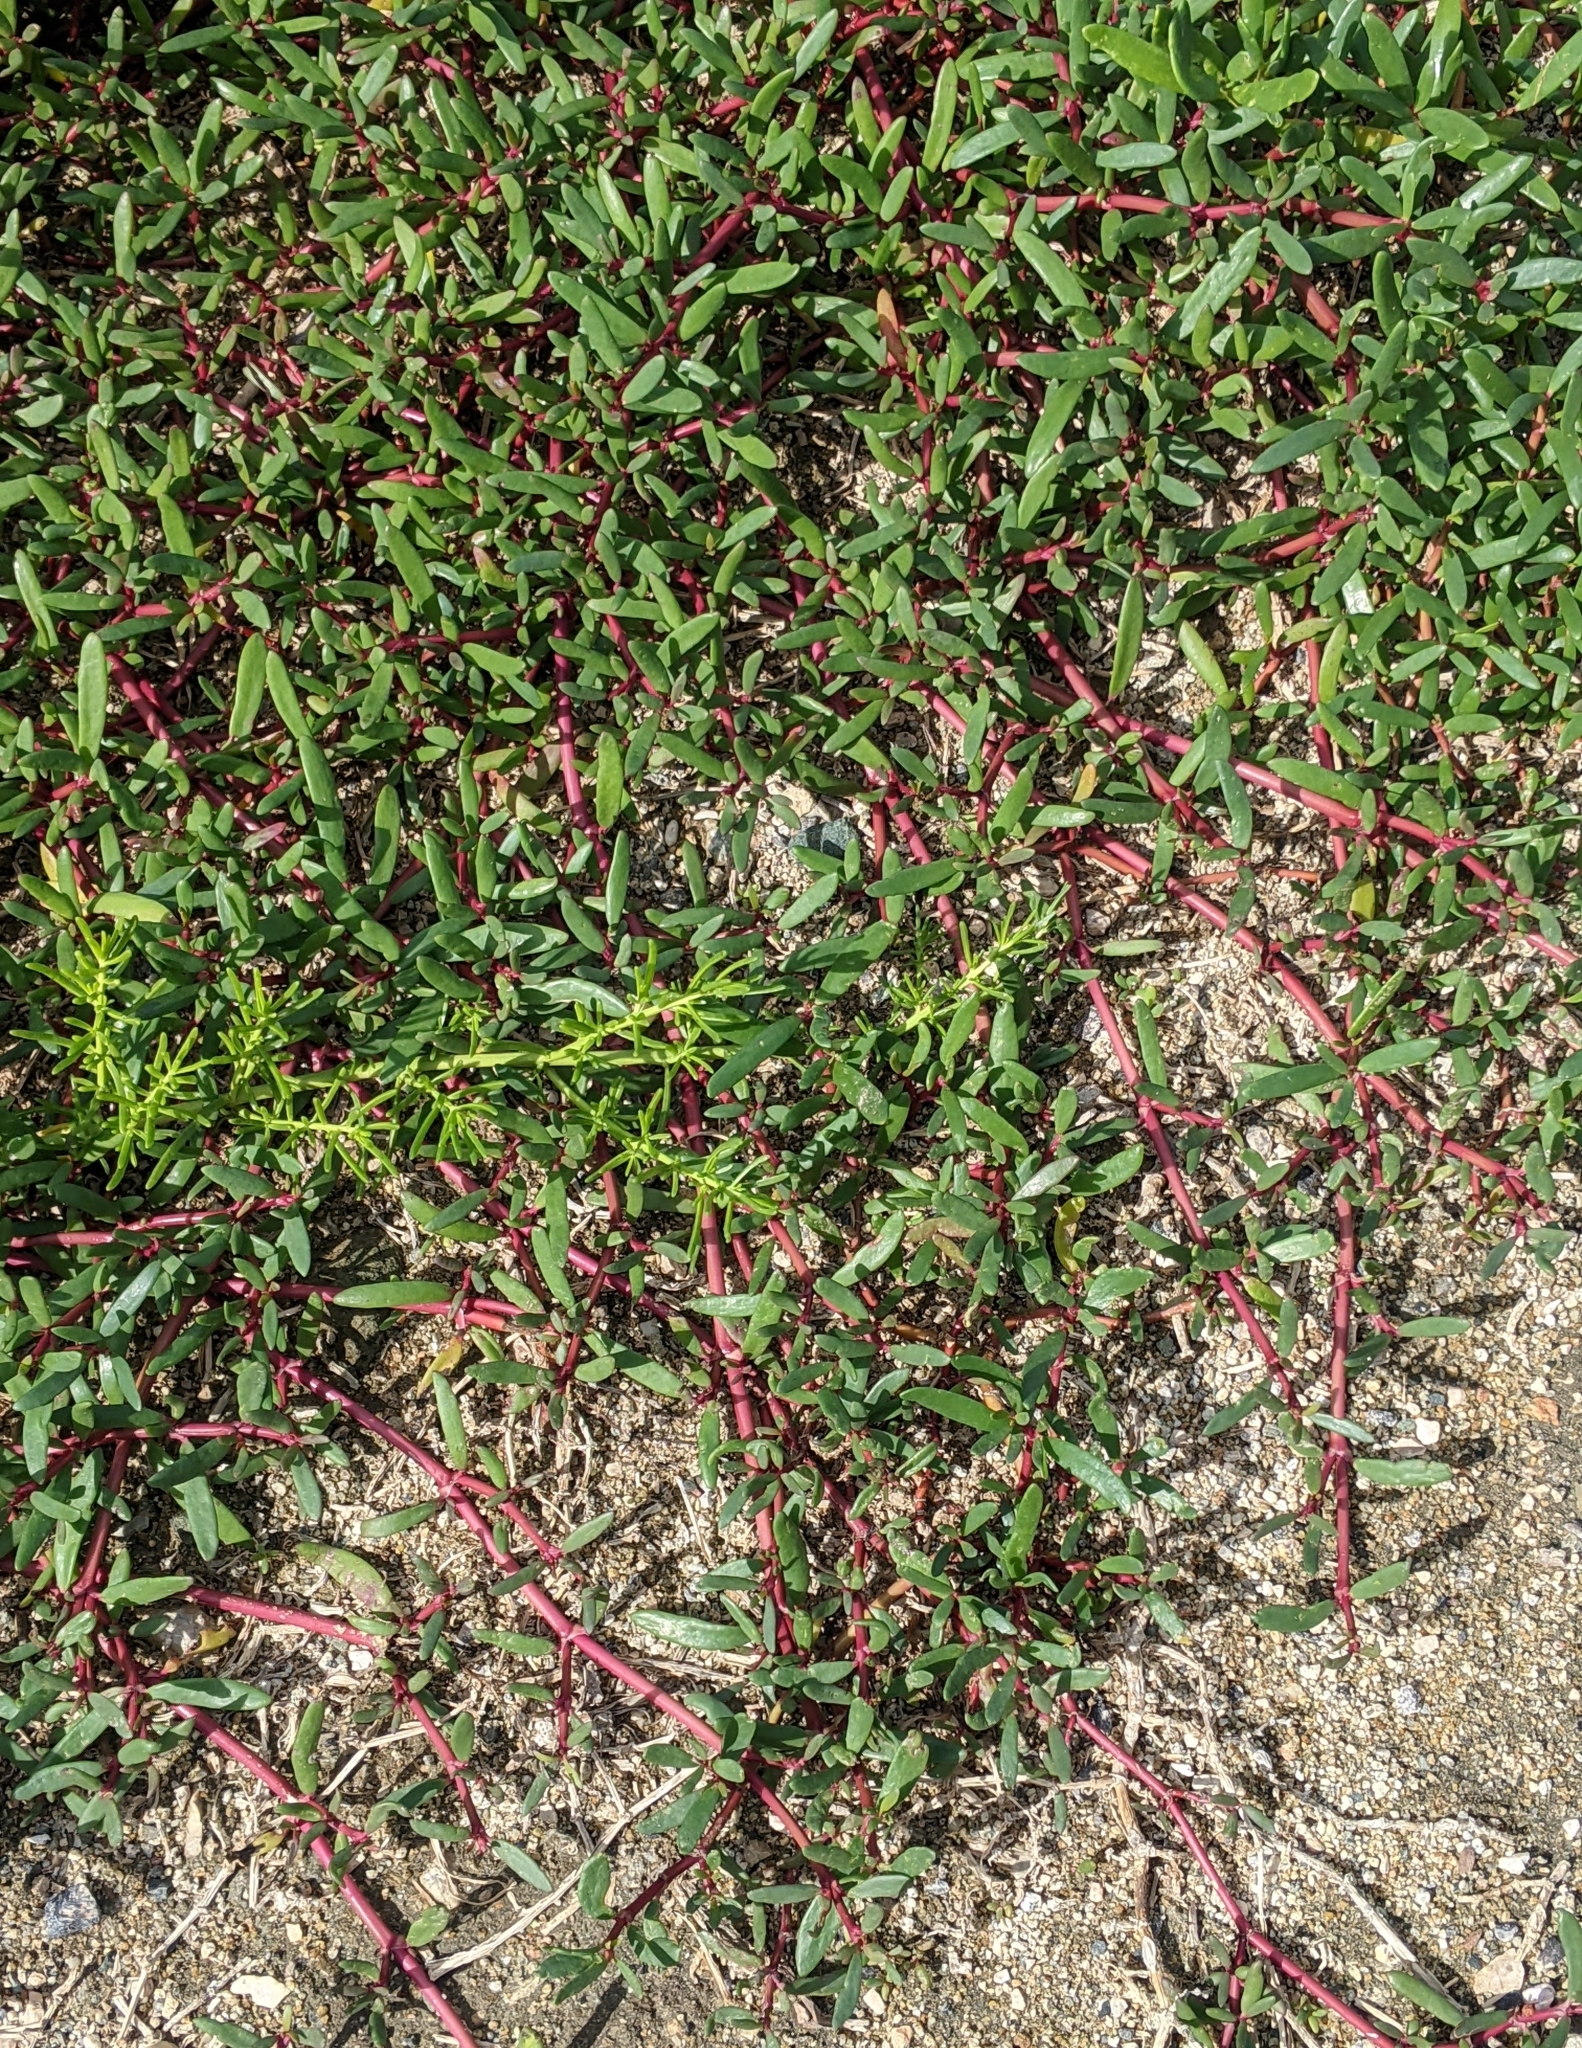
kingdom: Plantae
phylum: Tracheophyta
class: Magnoliopsida
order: Caryophyllales
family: Aizoaceae
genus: Sesuvium
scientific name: Sesuvium portulacastrum
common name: Sea-purslane
